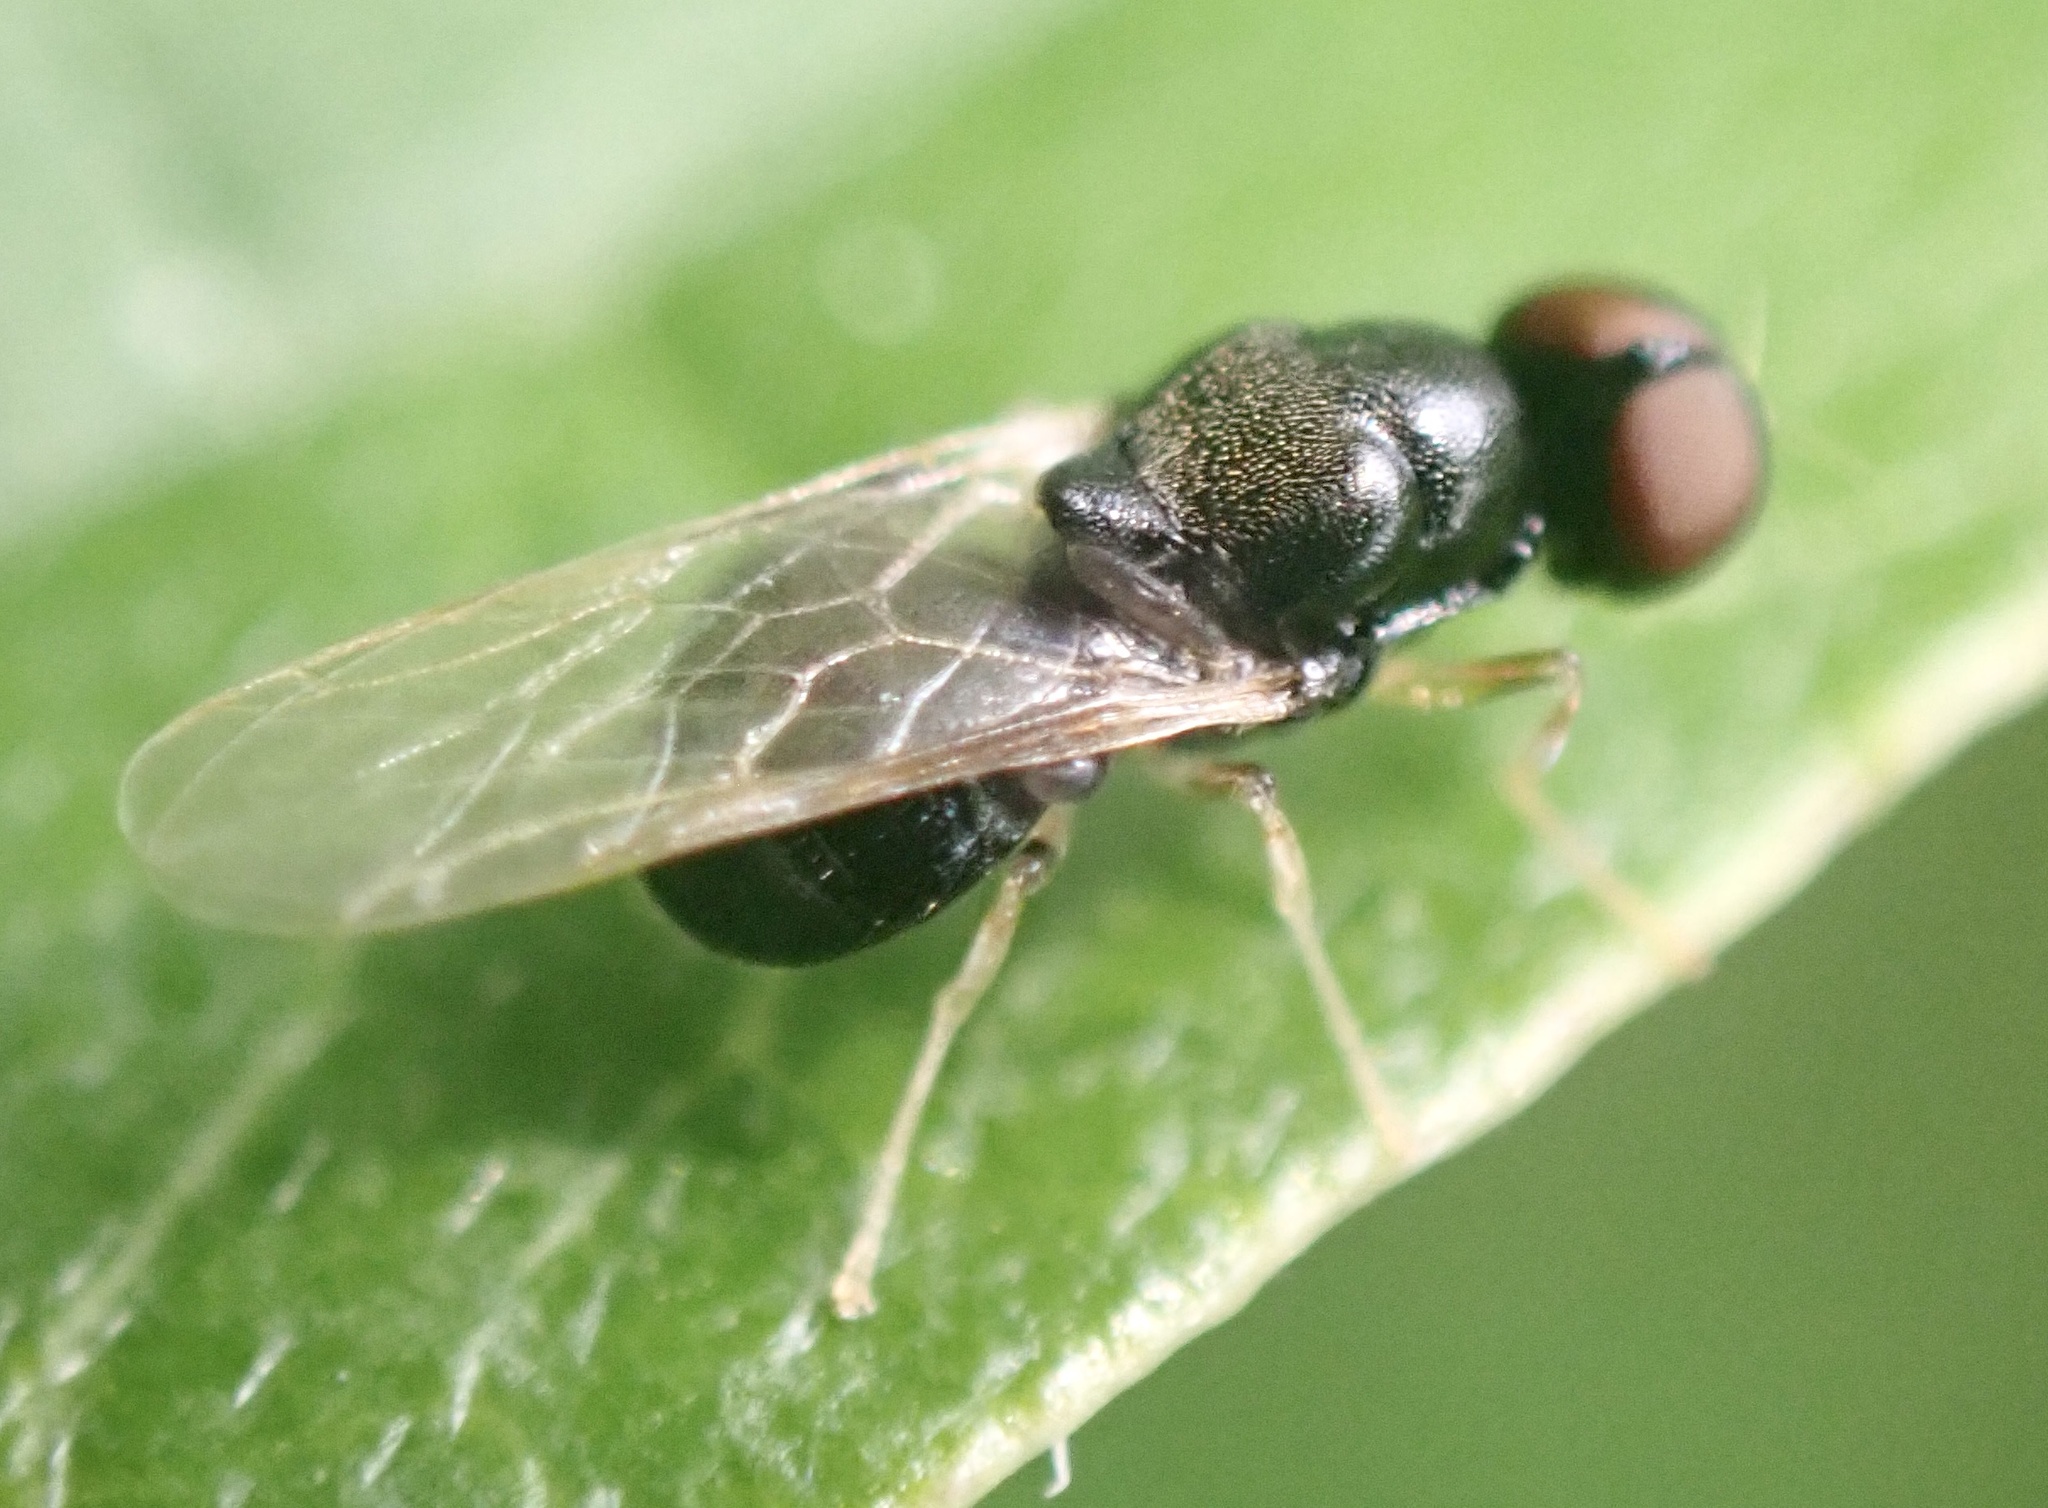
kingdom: Animalia
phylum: Arthropoda
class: Insecta
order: Diptera
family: Stratiomyidae
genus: Pachygaster
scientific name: Pachygaster leachii
